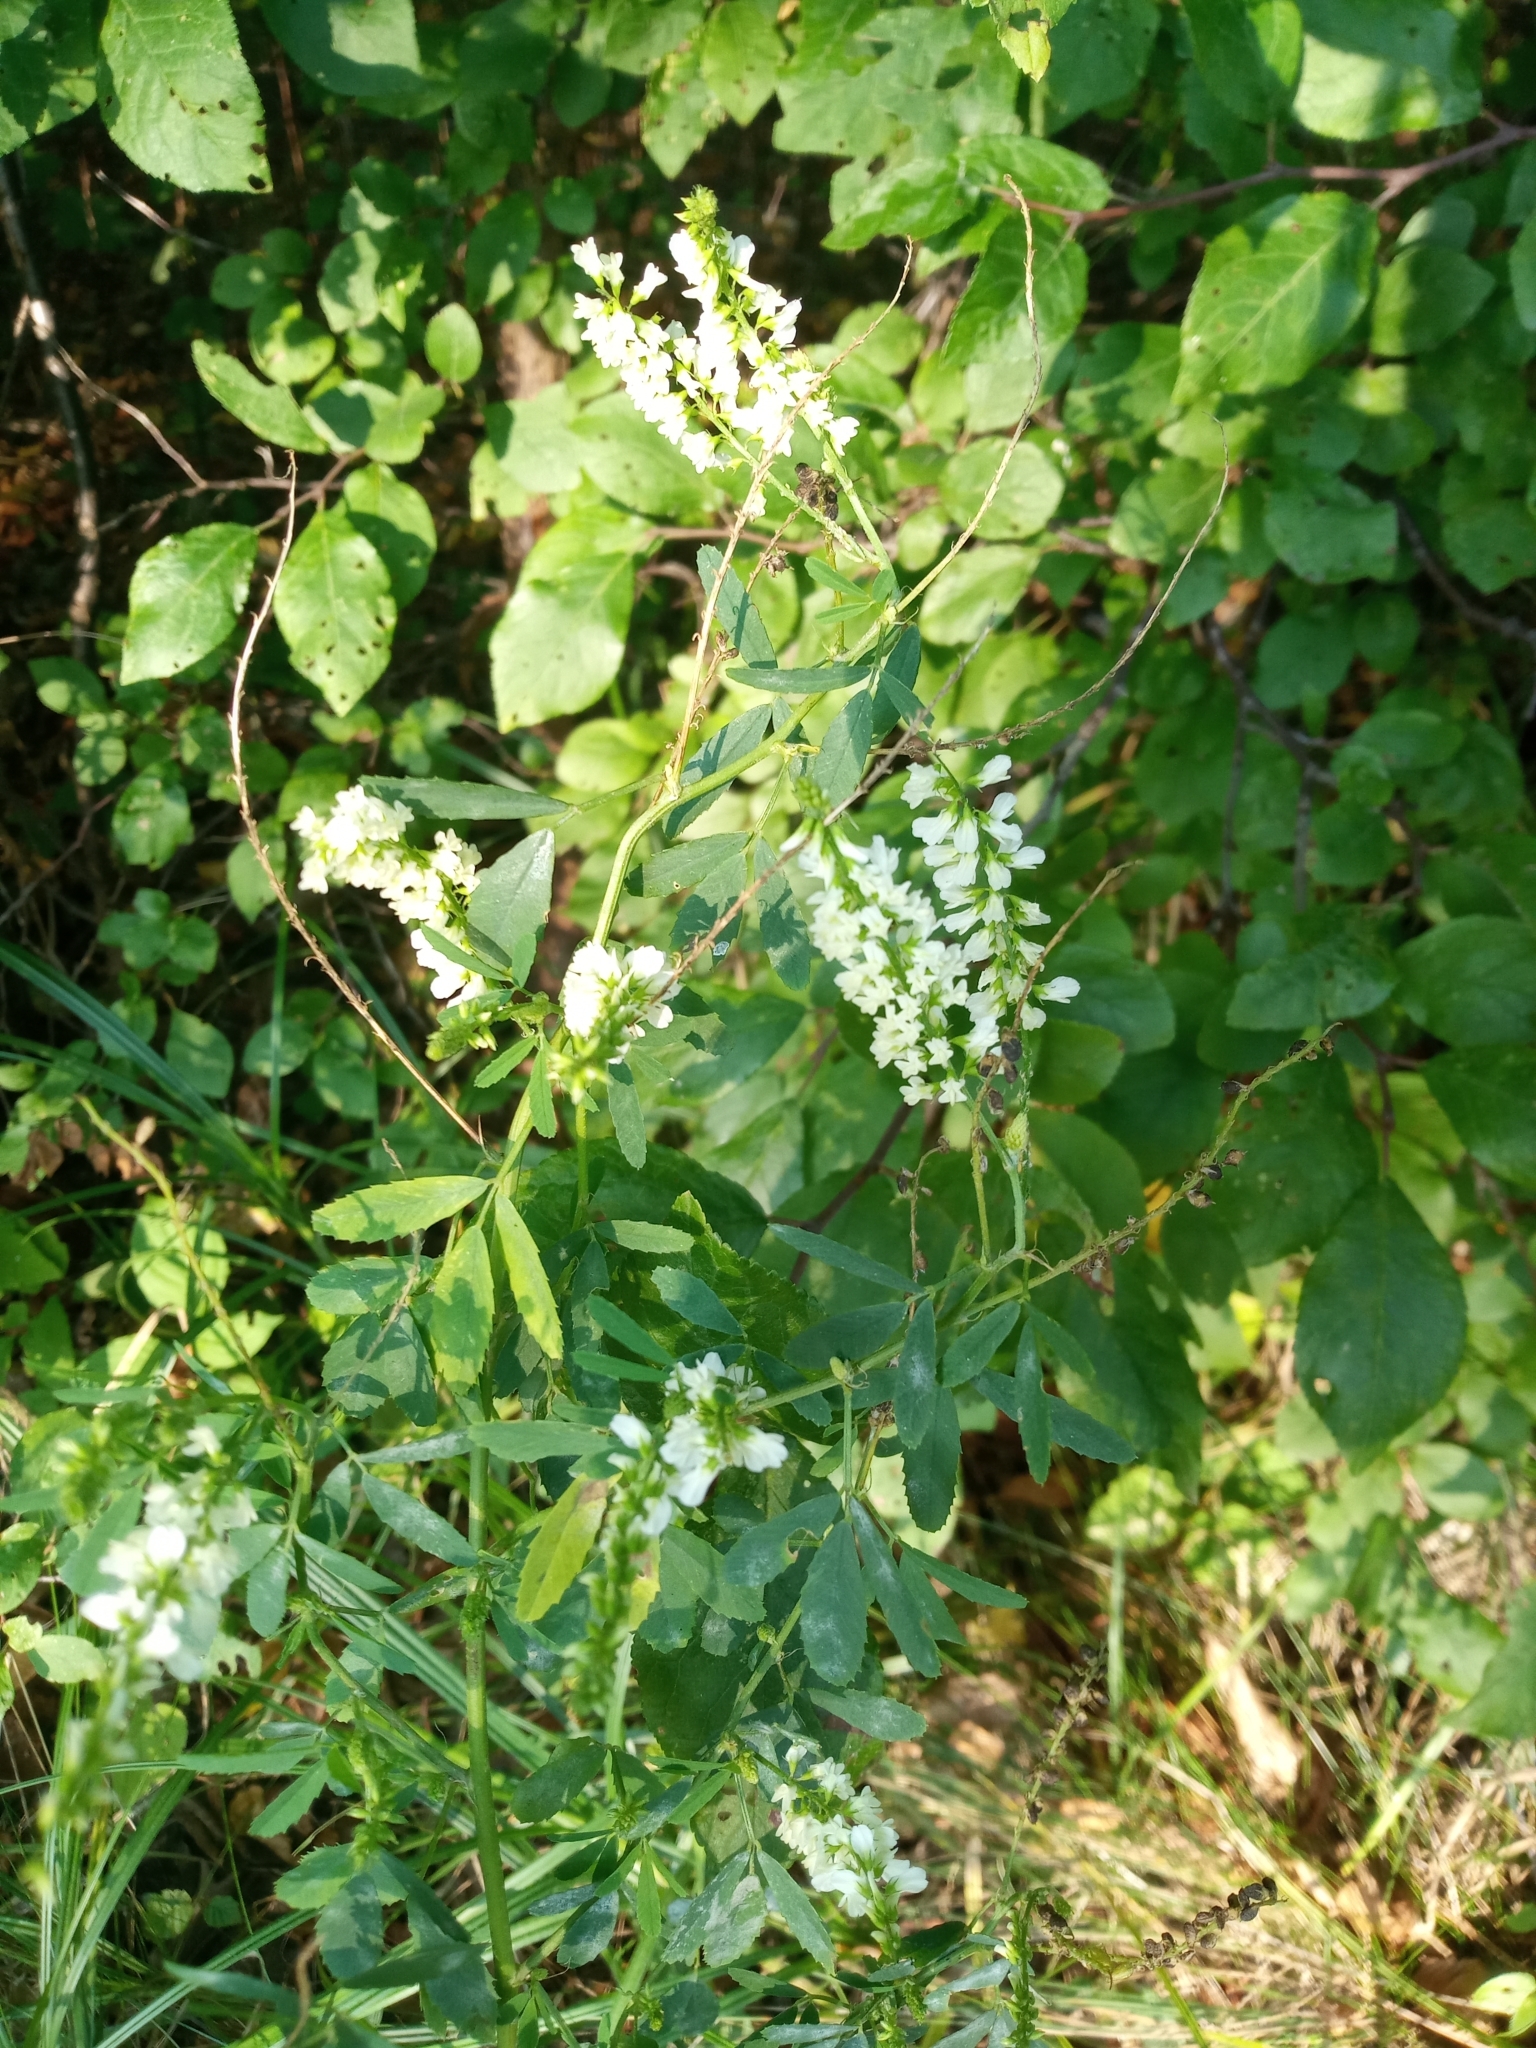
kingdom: Plantae
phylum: Tracheophyta
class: Magnoliopsida
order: Fabales
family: Fabaceae
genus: Melilotus
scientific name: Melilotus albus
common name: White melilot
